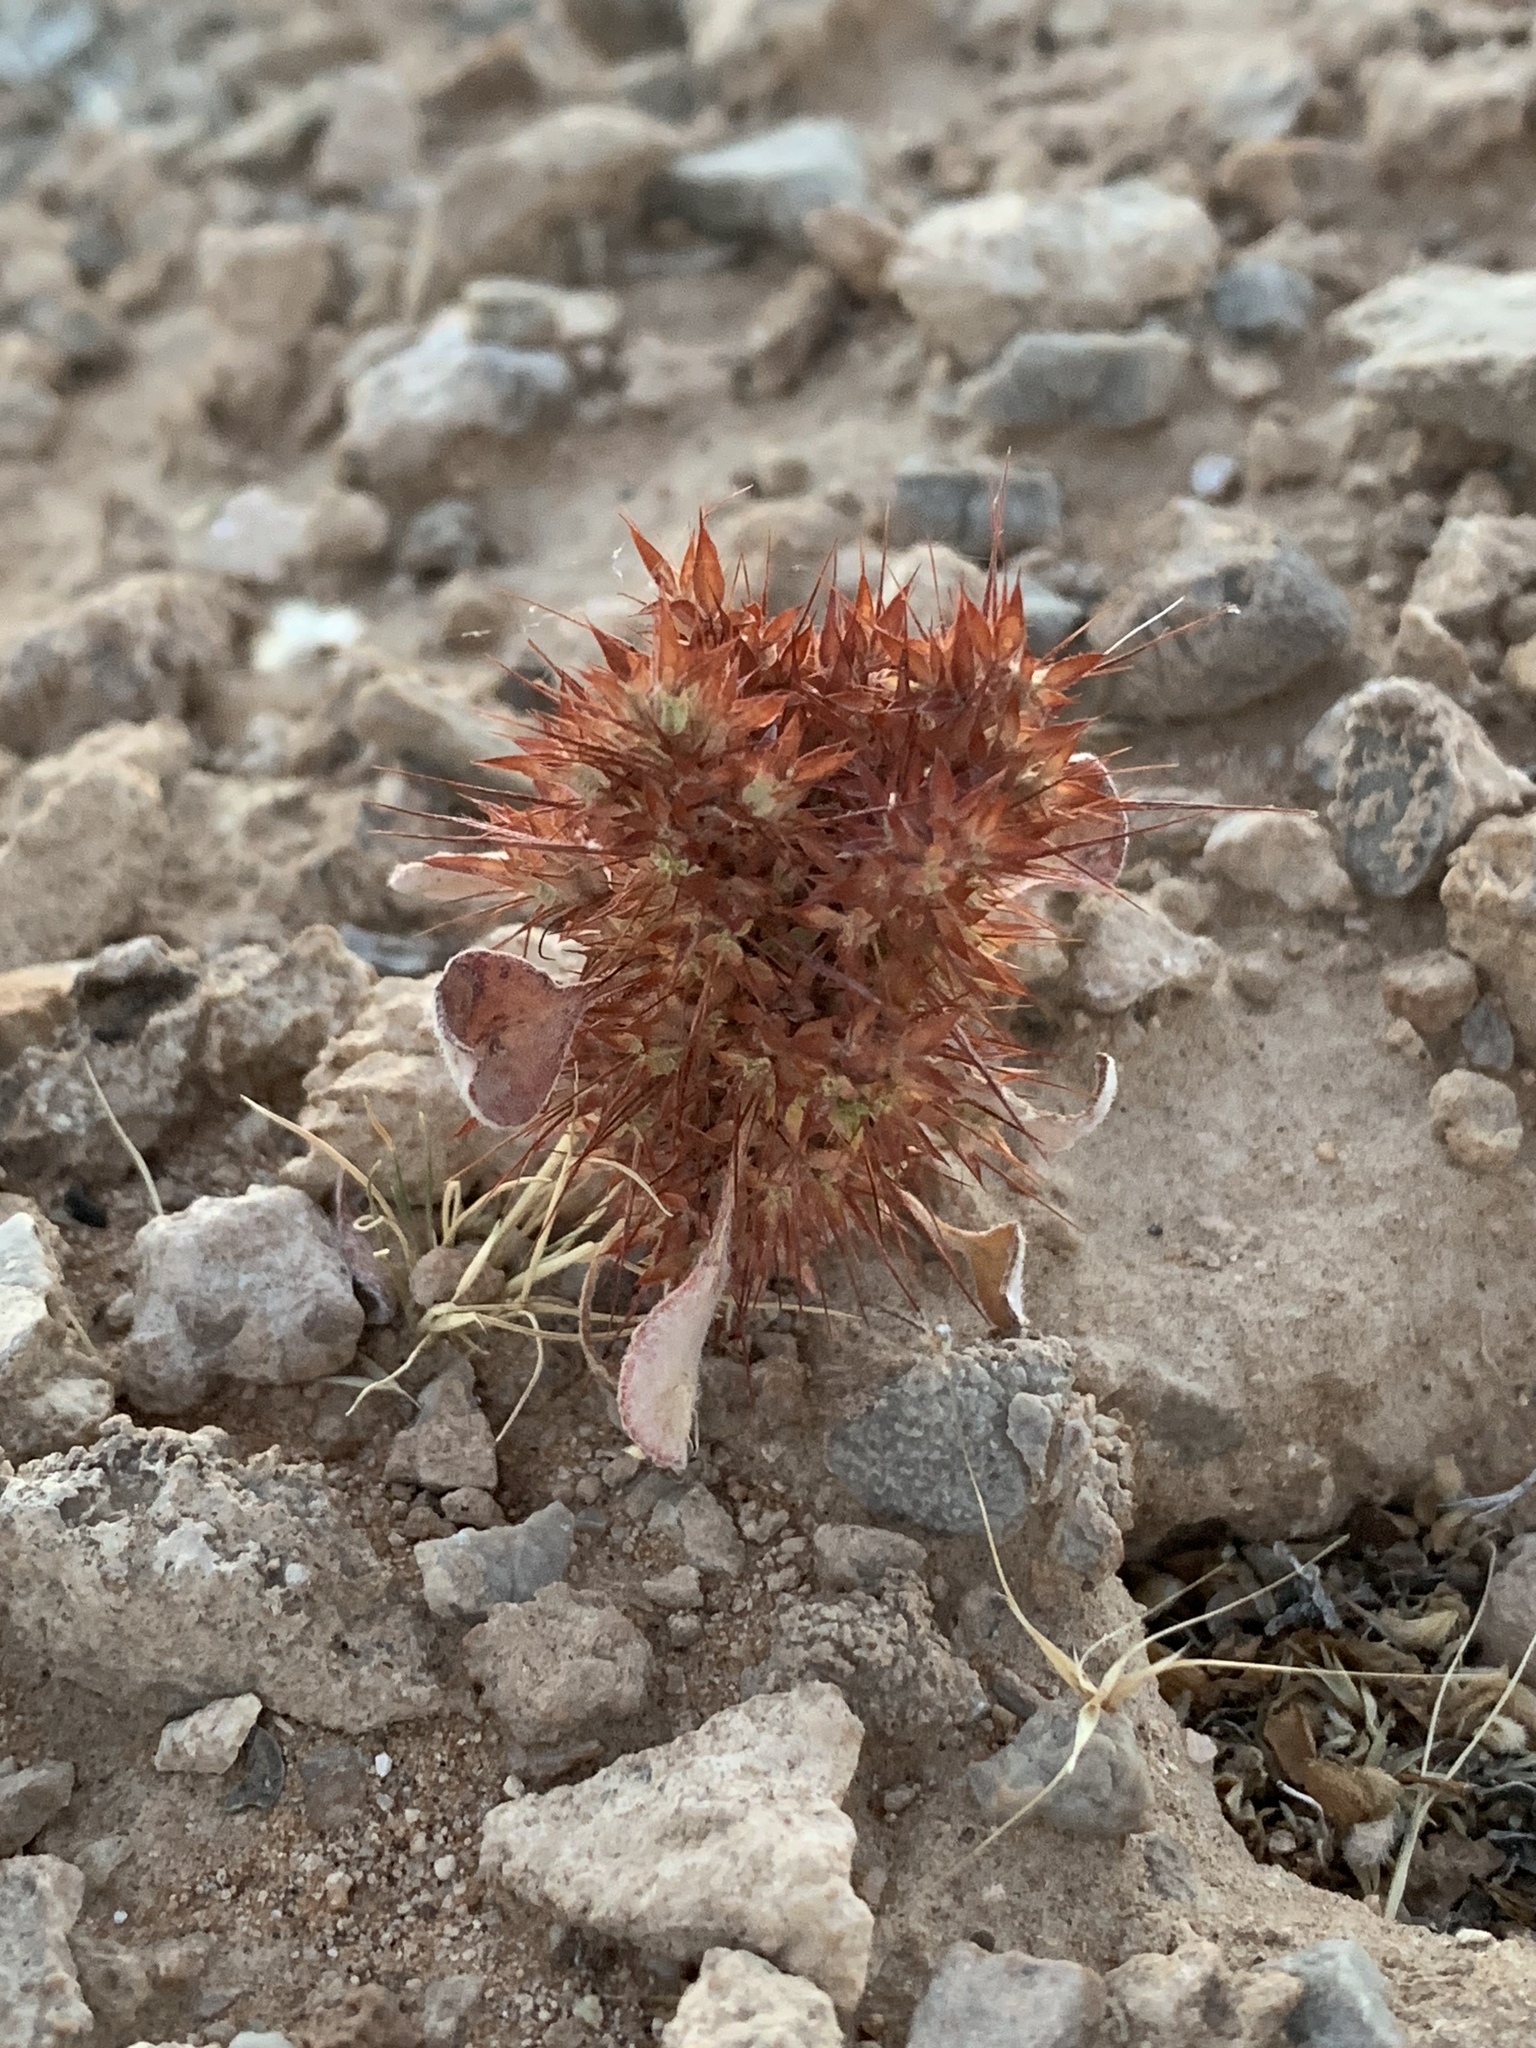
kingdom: Plantae
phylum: Tracheophyta
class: Magnoliopsida
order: Caryophyllales
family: Polygonaceae
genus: Chorizanthe
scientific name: Chorizanthe rigida
